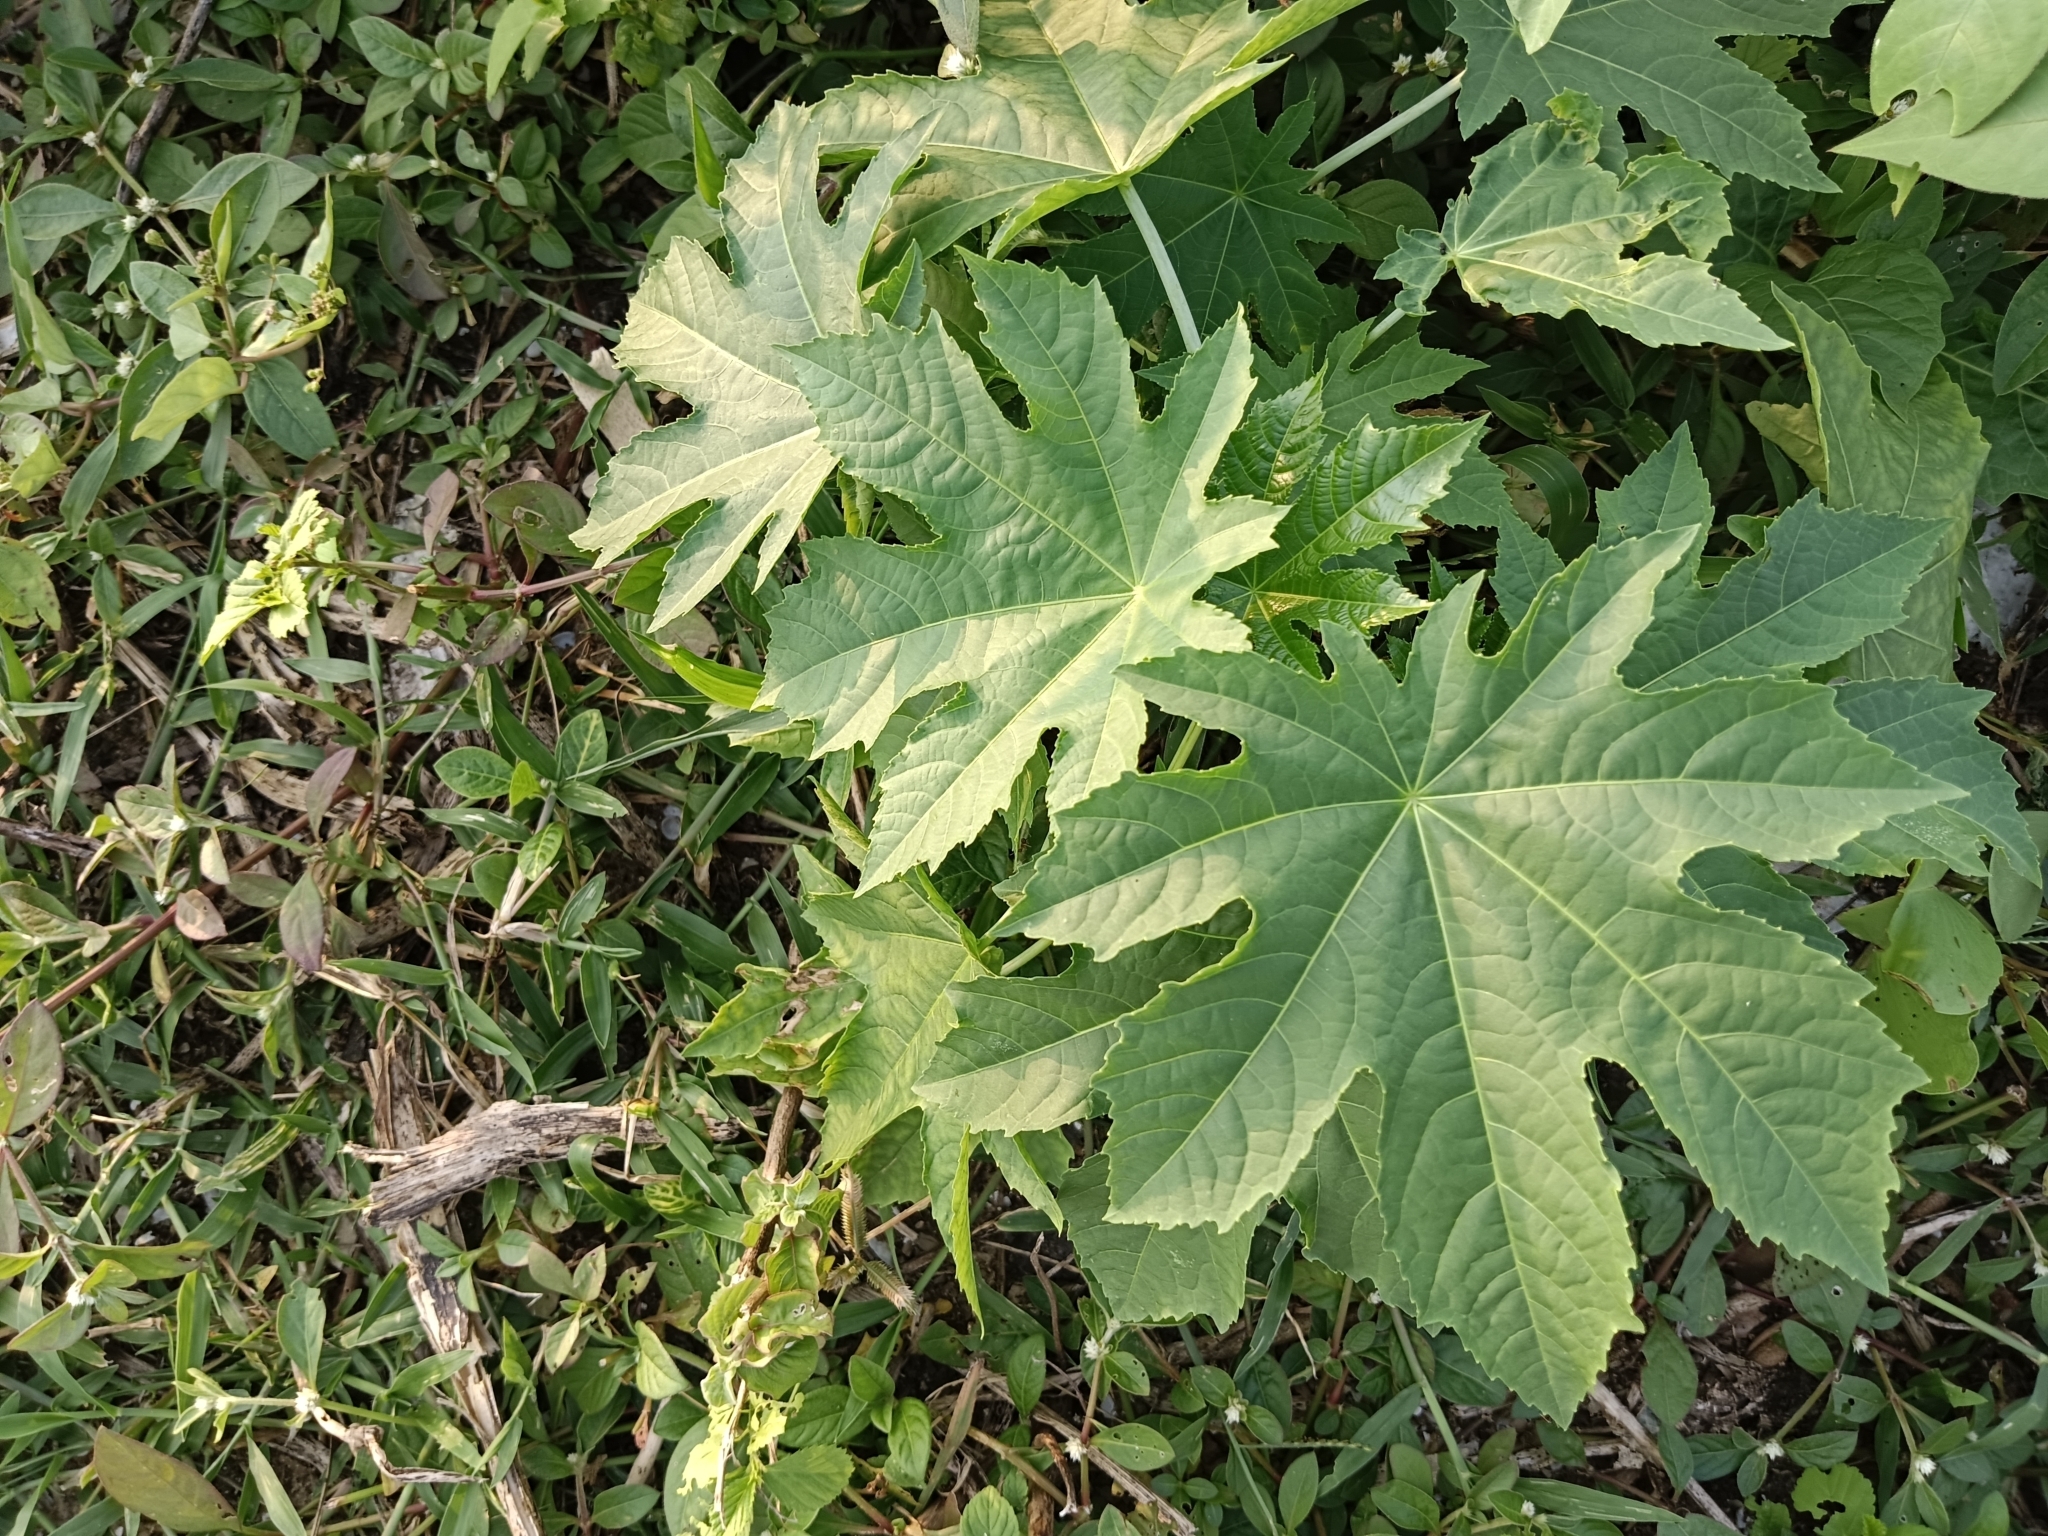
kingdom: Plantae
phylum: Tracheophyta
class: Magnoliopsida
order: Malpighiales
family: Euphorbiaceae
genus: Ricinus
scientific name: Ricinus communis
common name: Castor-oil-plant
